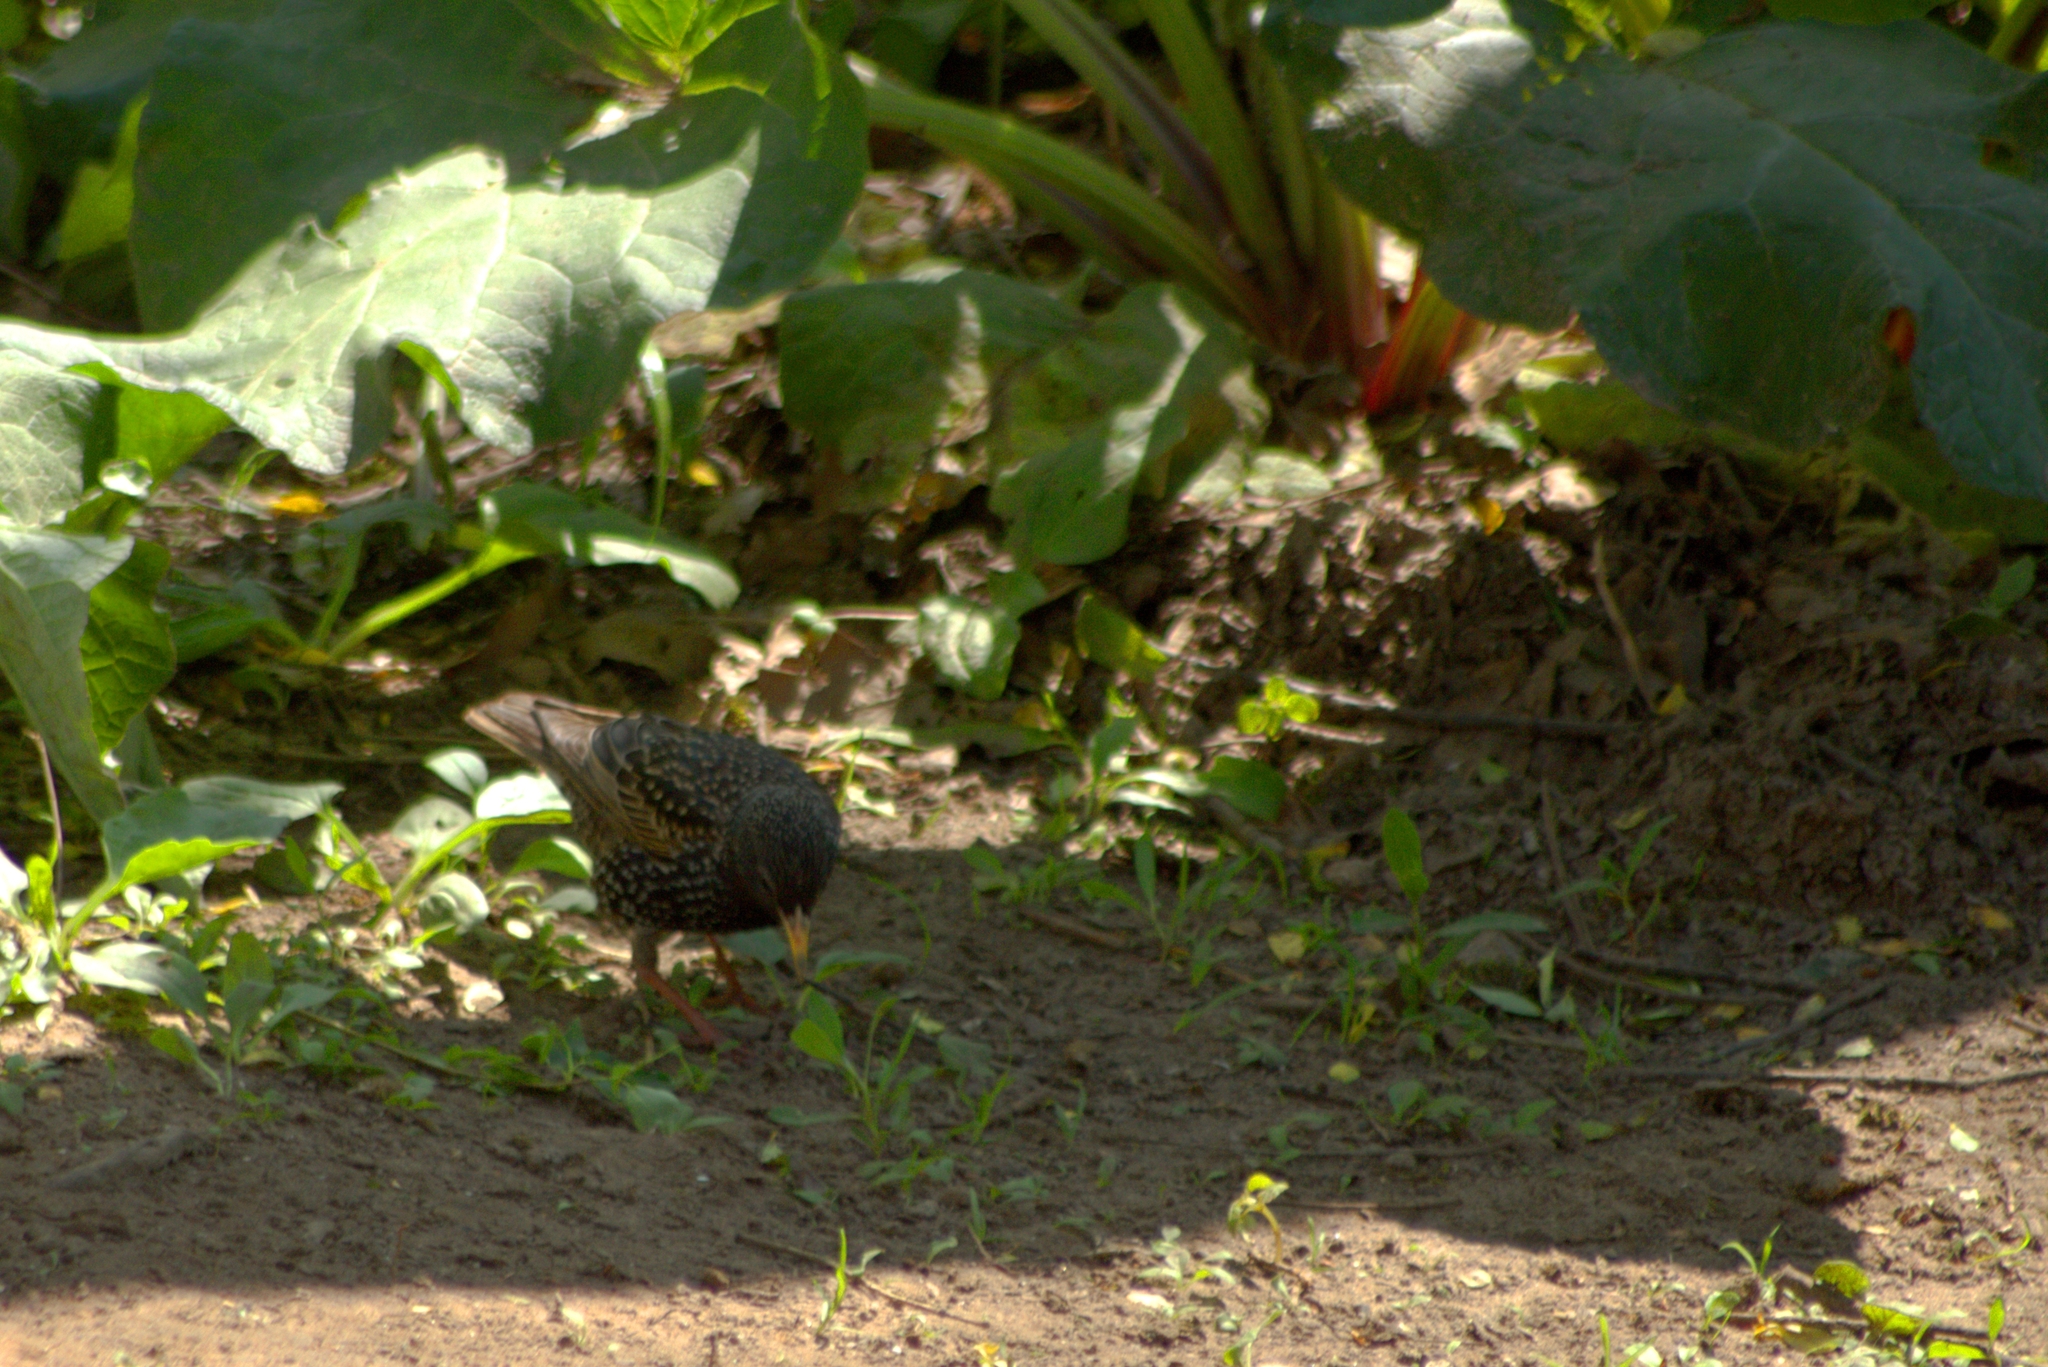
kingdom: Animalia
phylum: Chordata
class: Aves
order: Passeriformes
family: Sturnidae
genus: Sturnus
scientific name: Sturnus vulgaris
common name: Common starling
